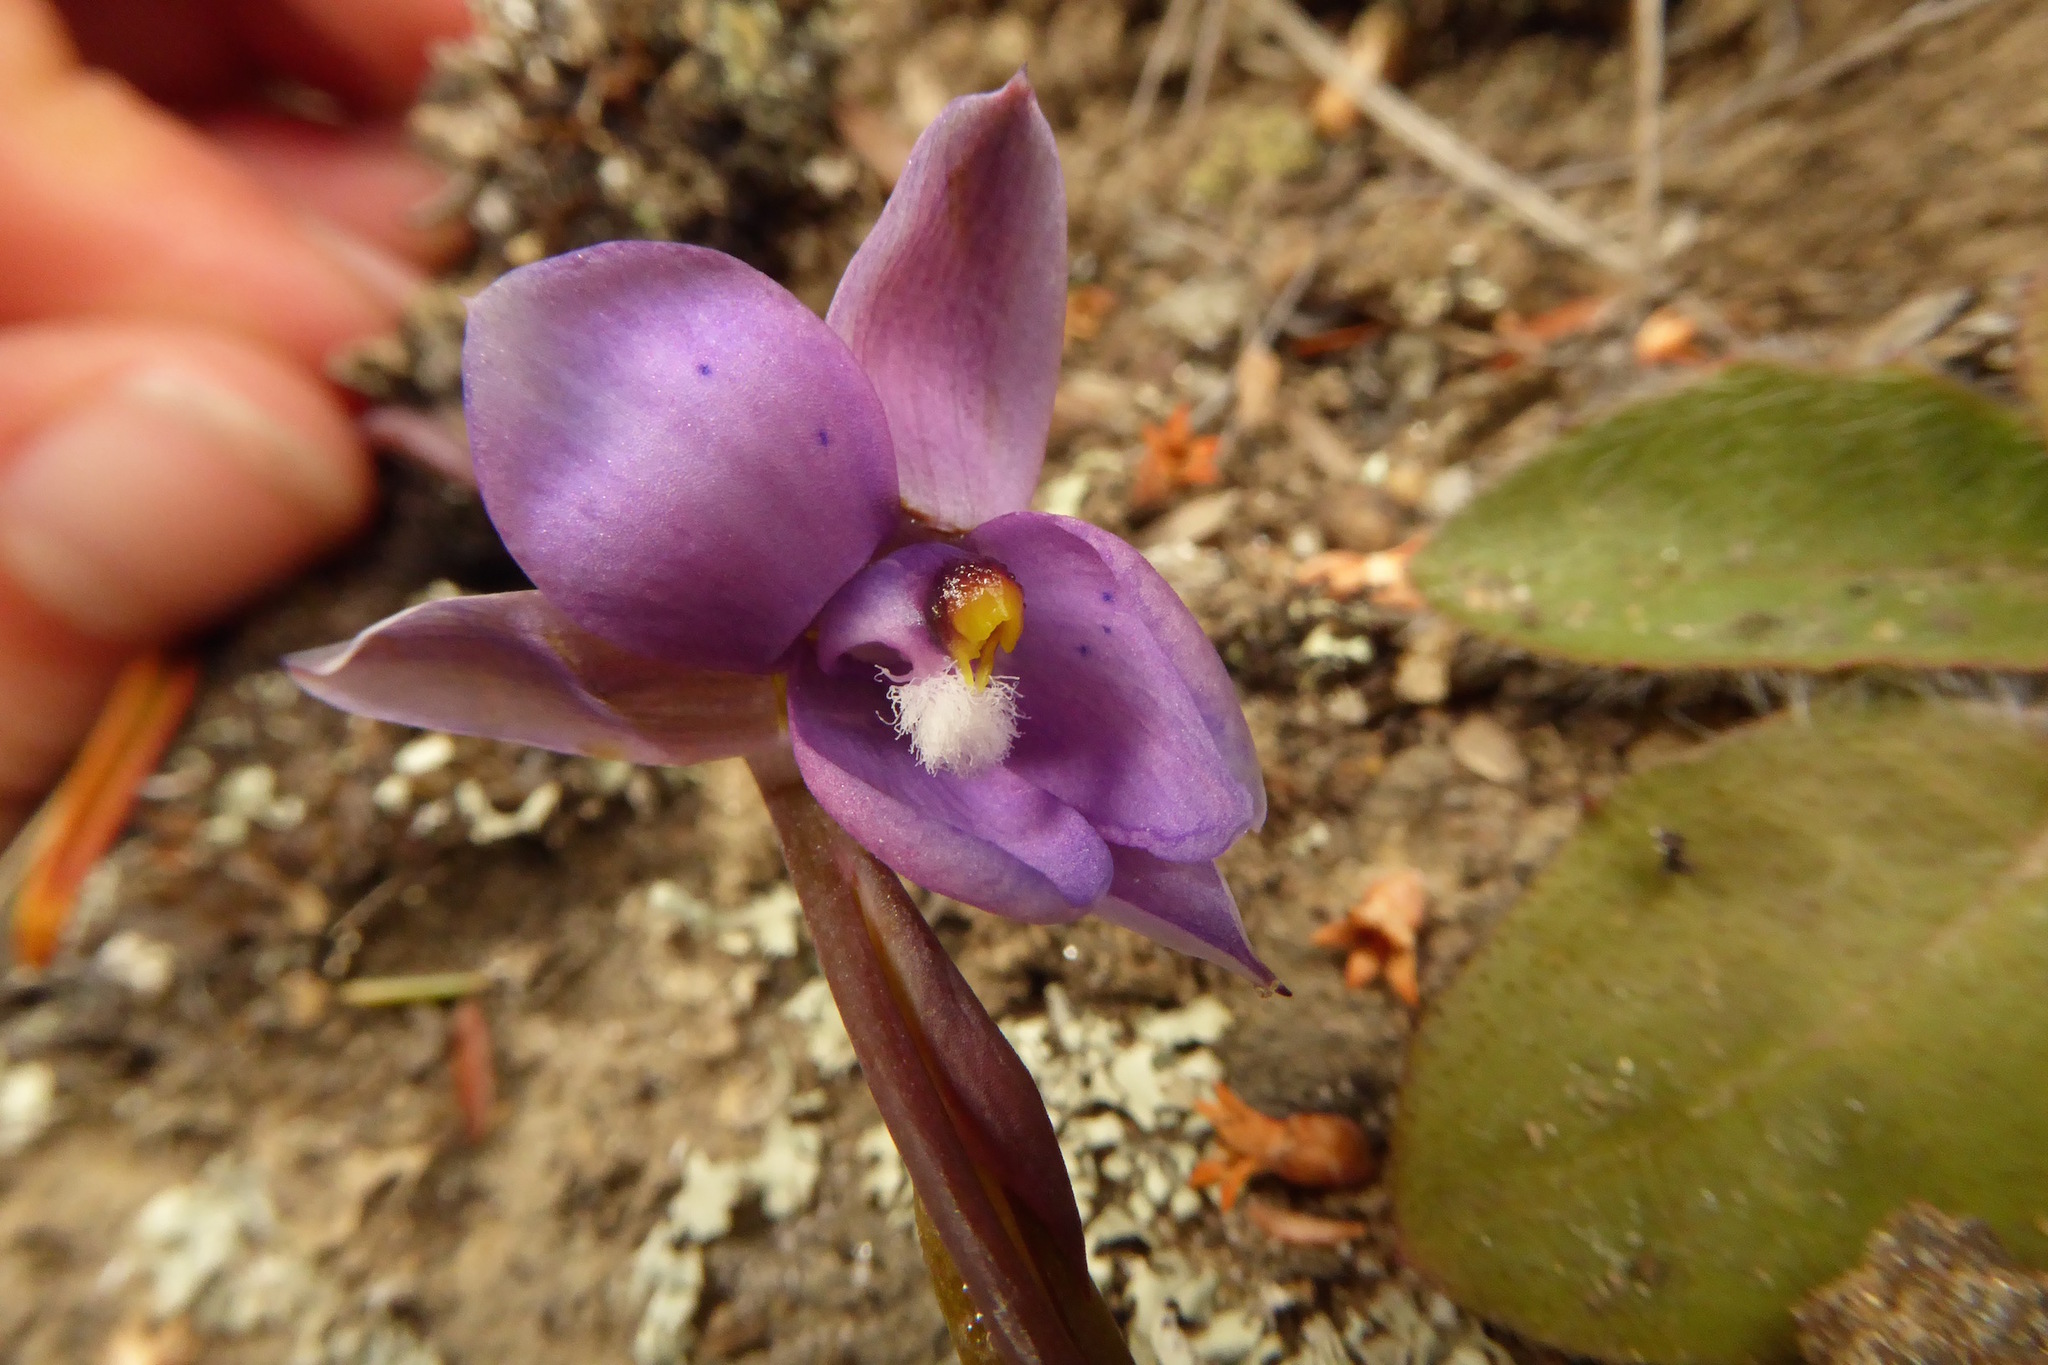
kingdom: Plantae
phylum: Tracheophyta
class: Liliopsida
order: Asparagales
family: Orchidaceae
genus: Thelymitra
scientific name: Thelymitra nervosa
